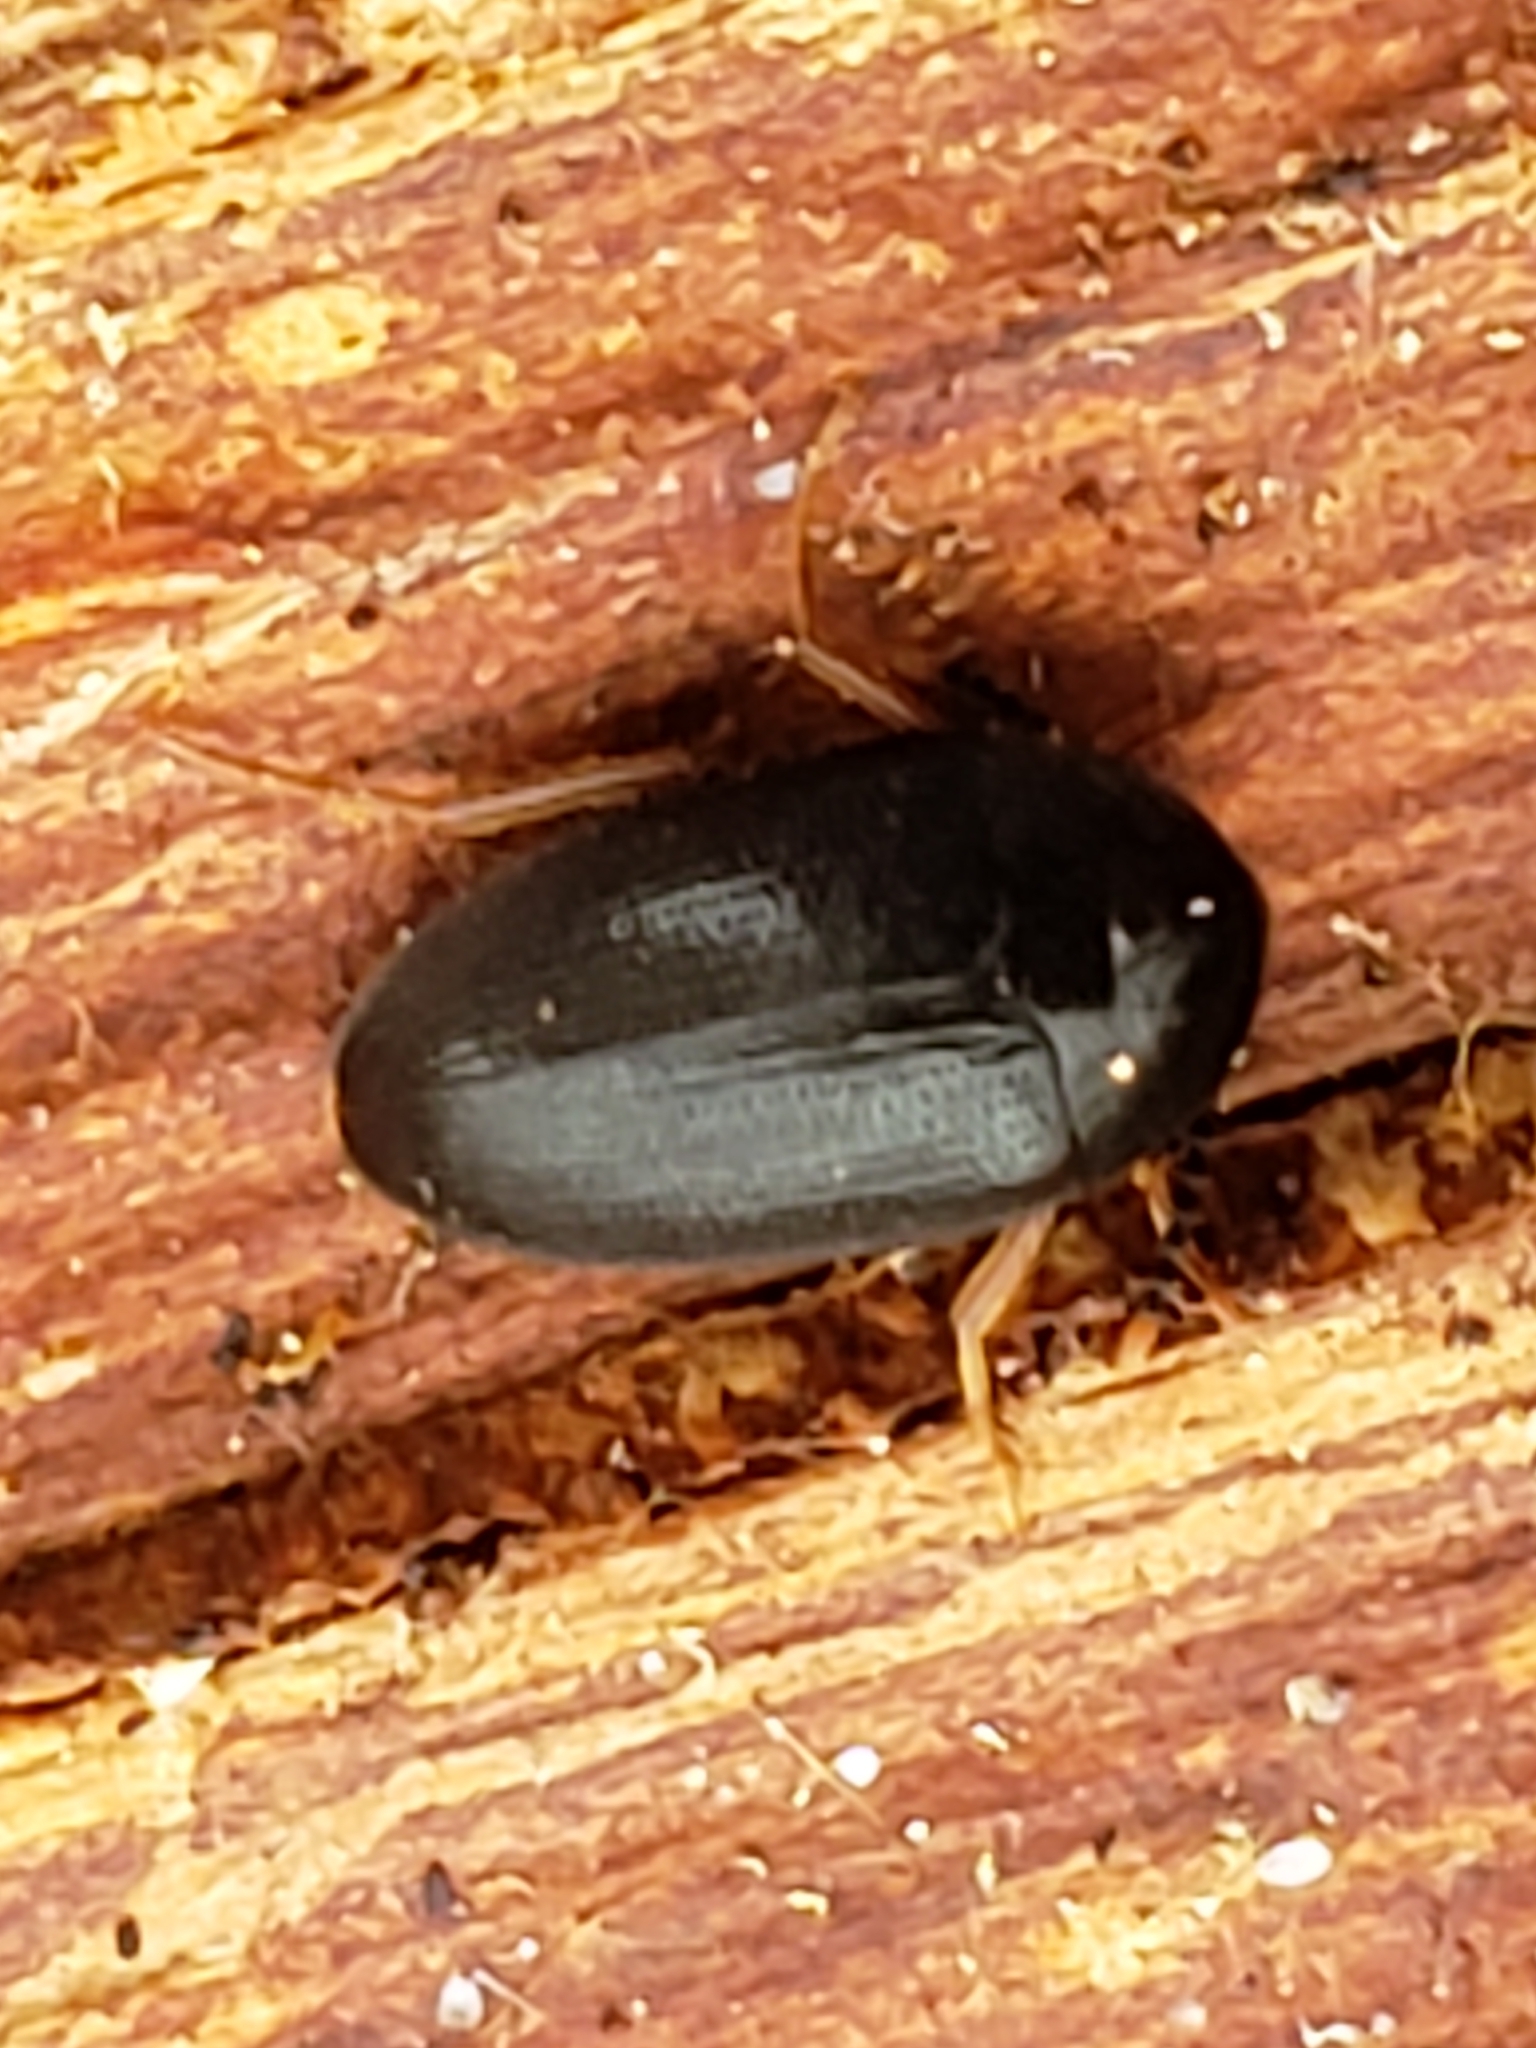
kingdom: Animalia
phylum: Arthropoda
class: Insecta
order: Coleoptera
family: Tetratomidae
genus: Eustrophopsis
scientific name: Eustrophopsis bicolor
